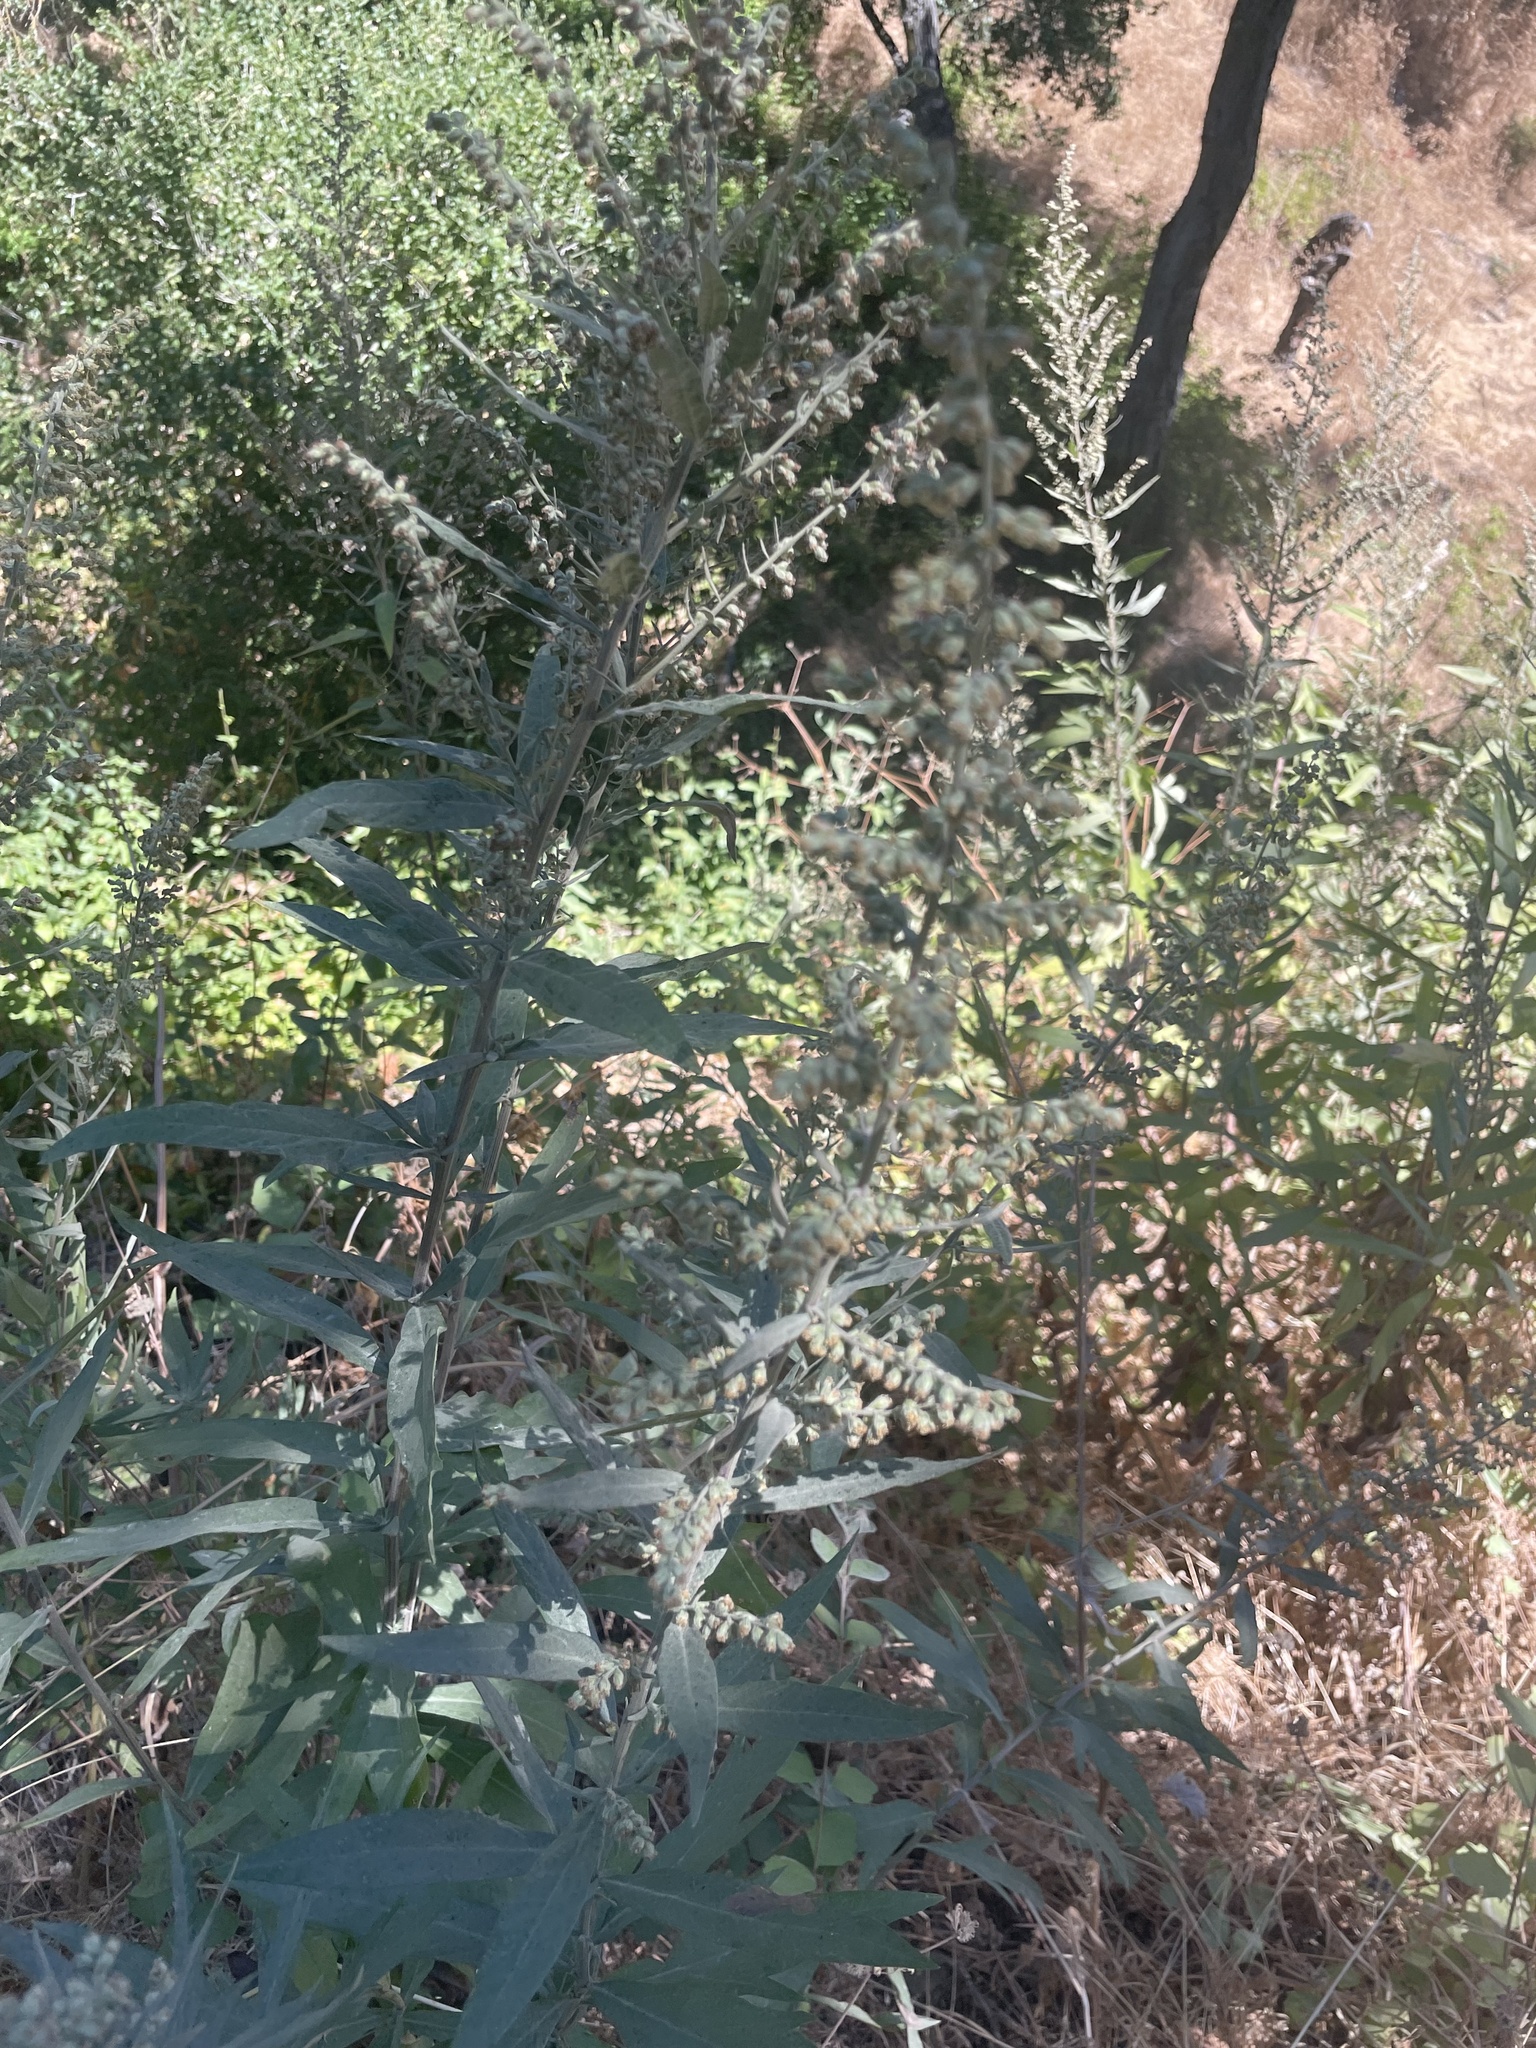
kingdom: Plantae
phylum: Tracheophyta
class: Magnoliopsida
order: Asterales
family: Asteraceae
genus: Artemisia
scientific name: Artemisia douglasiana
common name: Northwest mugwort
